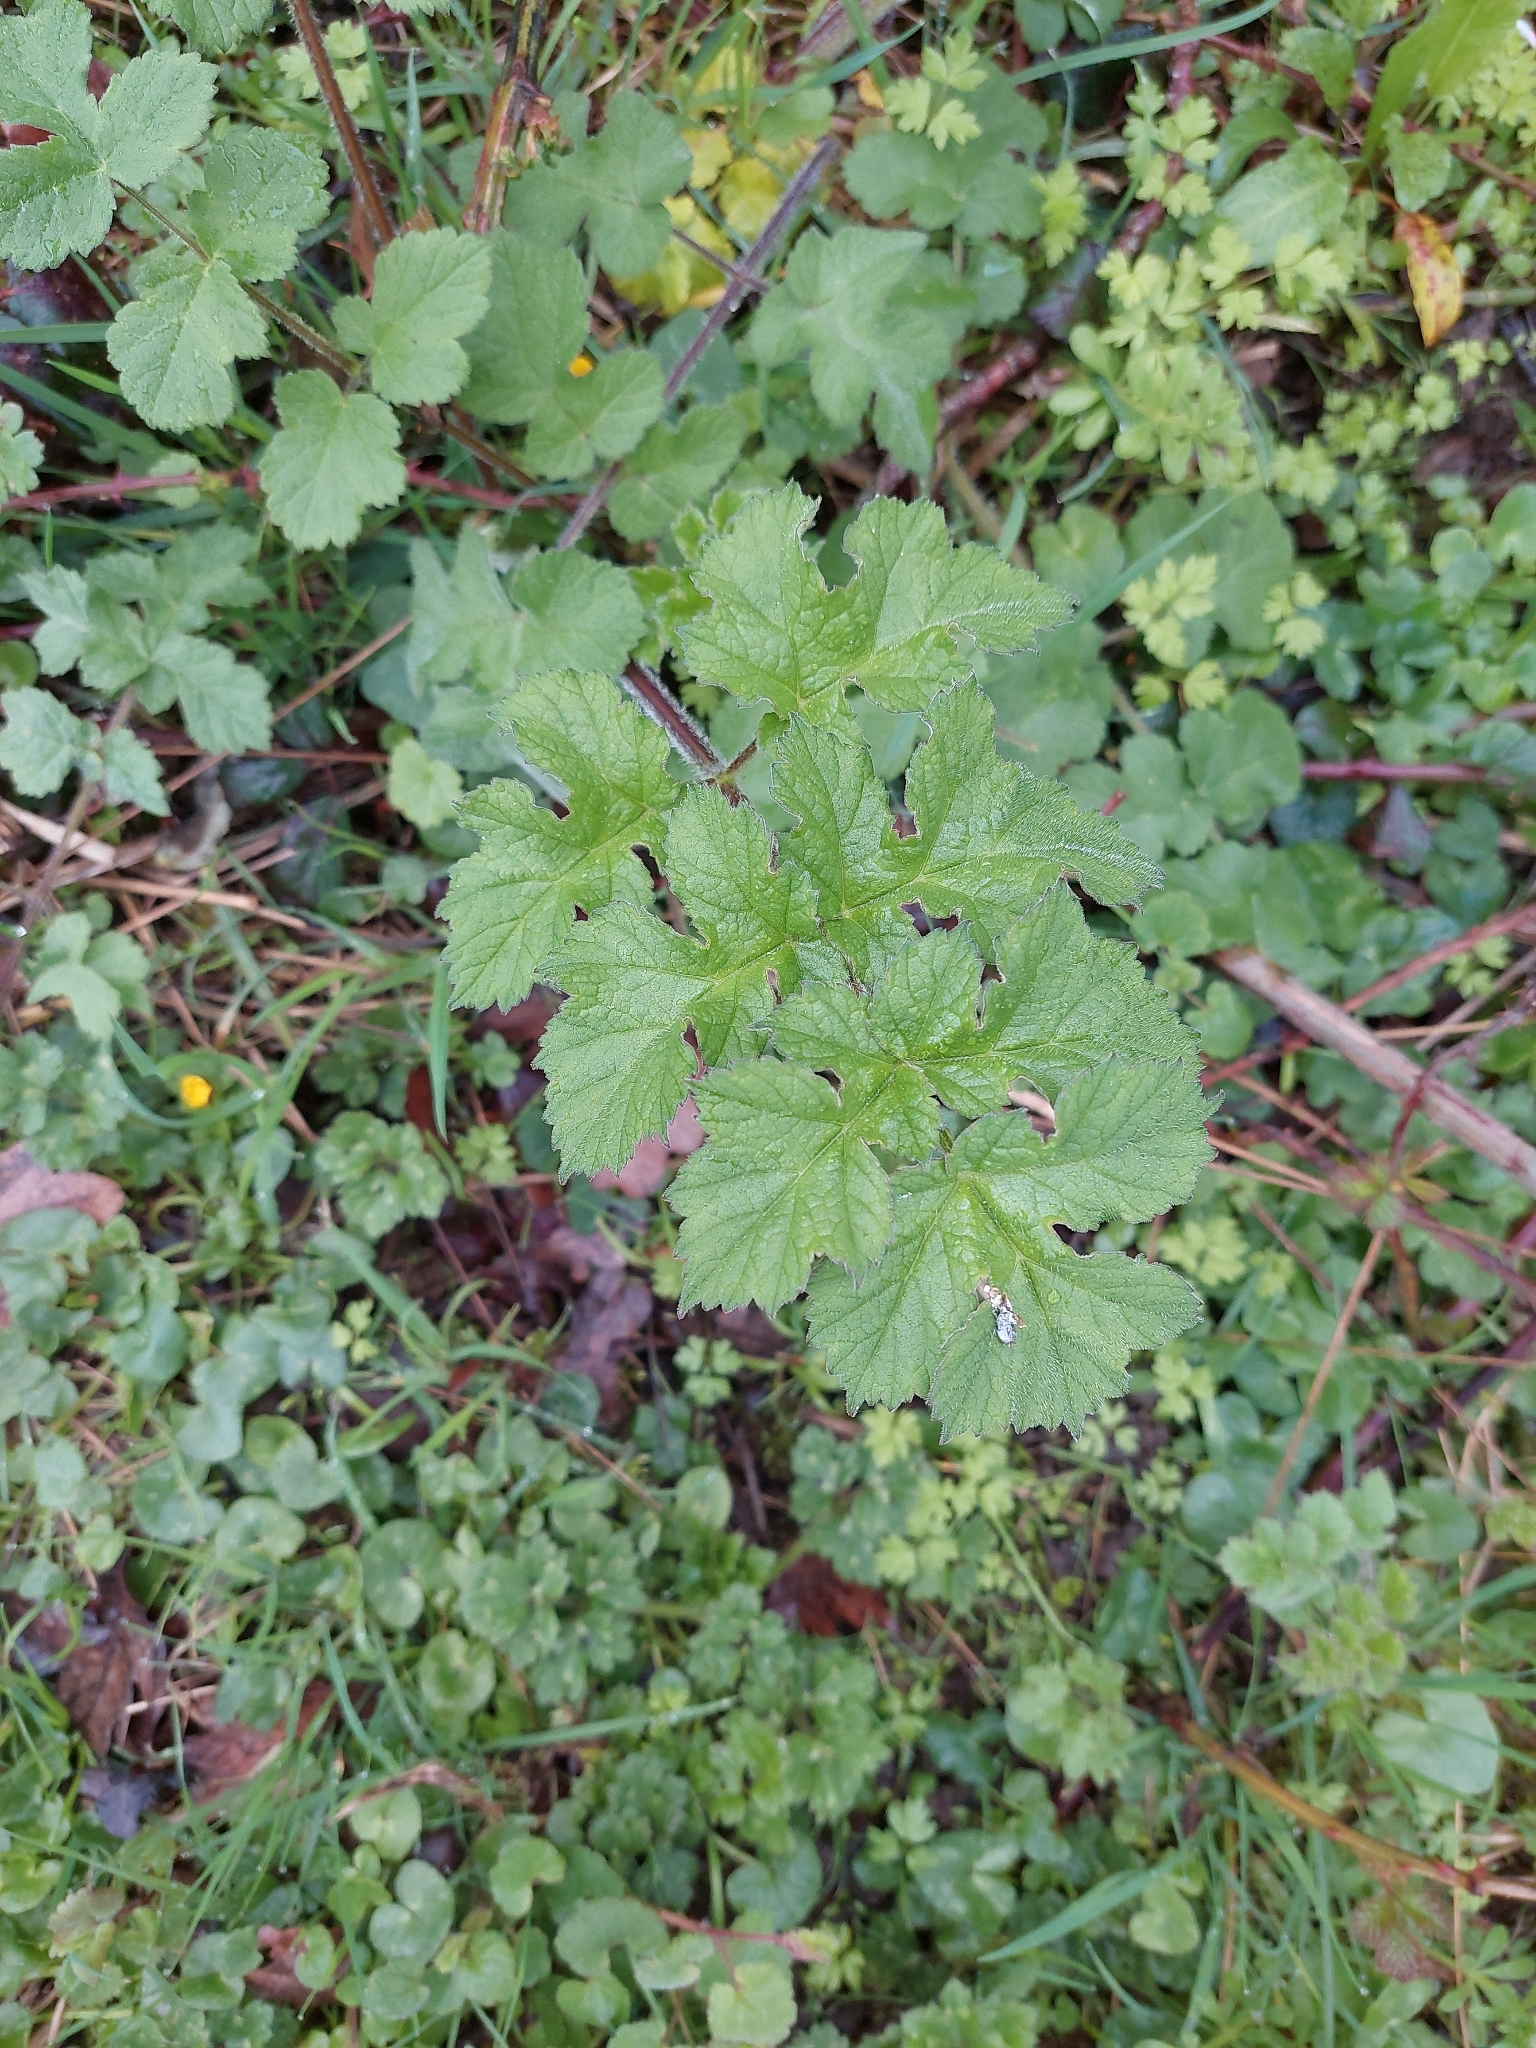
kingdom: Plantae
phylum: Tracheophyta
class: Magnoliopsida
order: Apiales
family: Apiaceae
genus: Heracleum
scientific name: Heracleum sphondylium
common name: Hogweed
